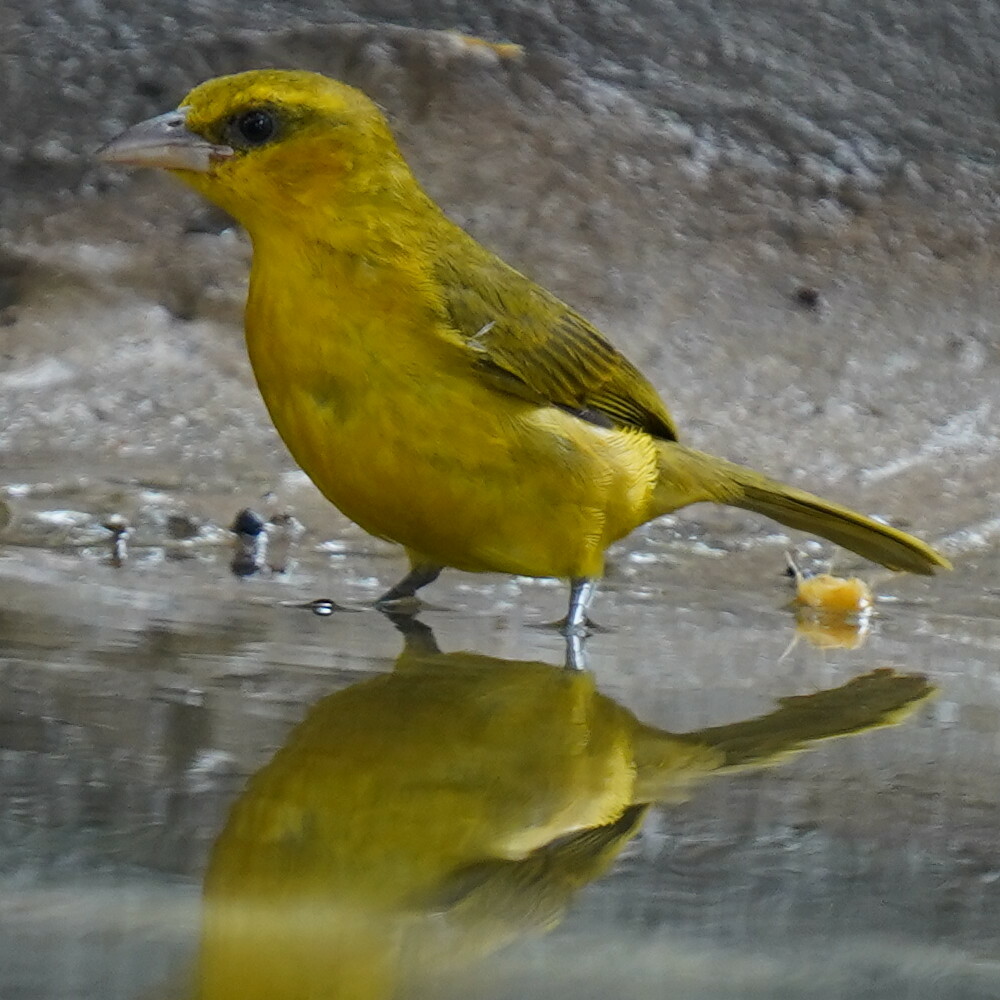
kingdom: Animalia
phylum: Chordata
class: Aves
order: Passeriformes
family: Ploceidae
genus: Ploceus
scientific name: Ploceus brachypterus
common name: Olive-naped weaver
